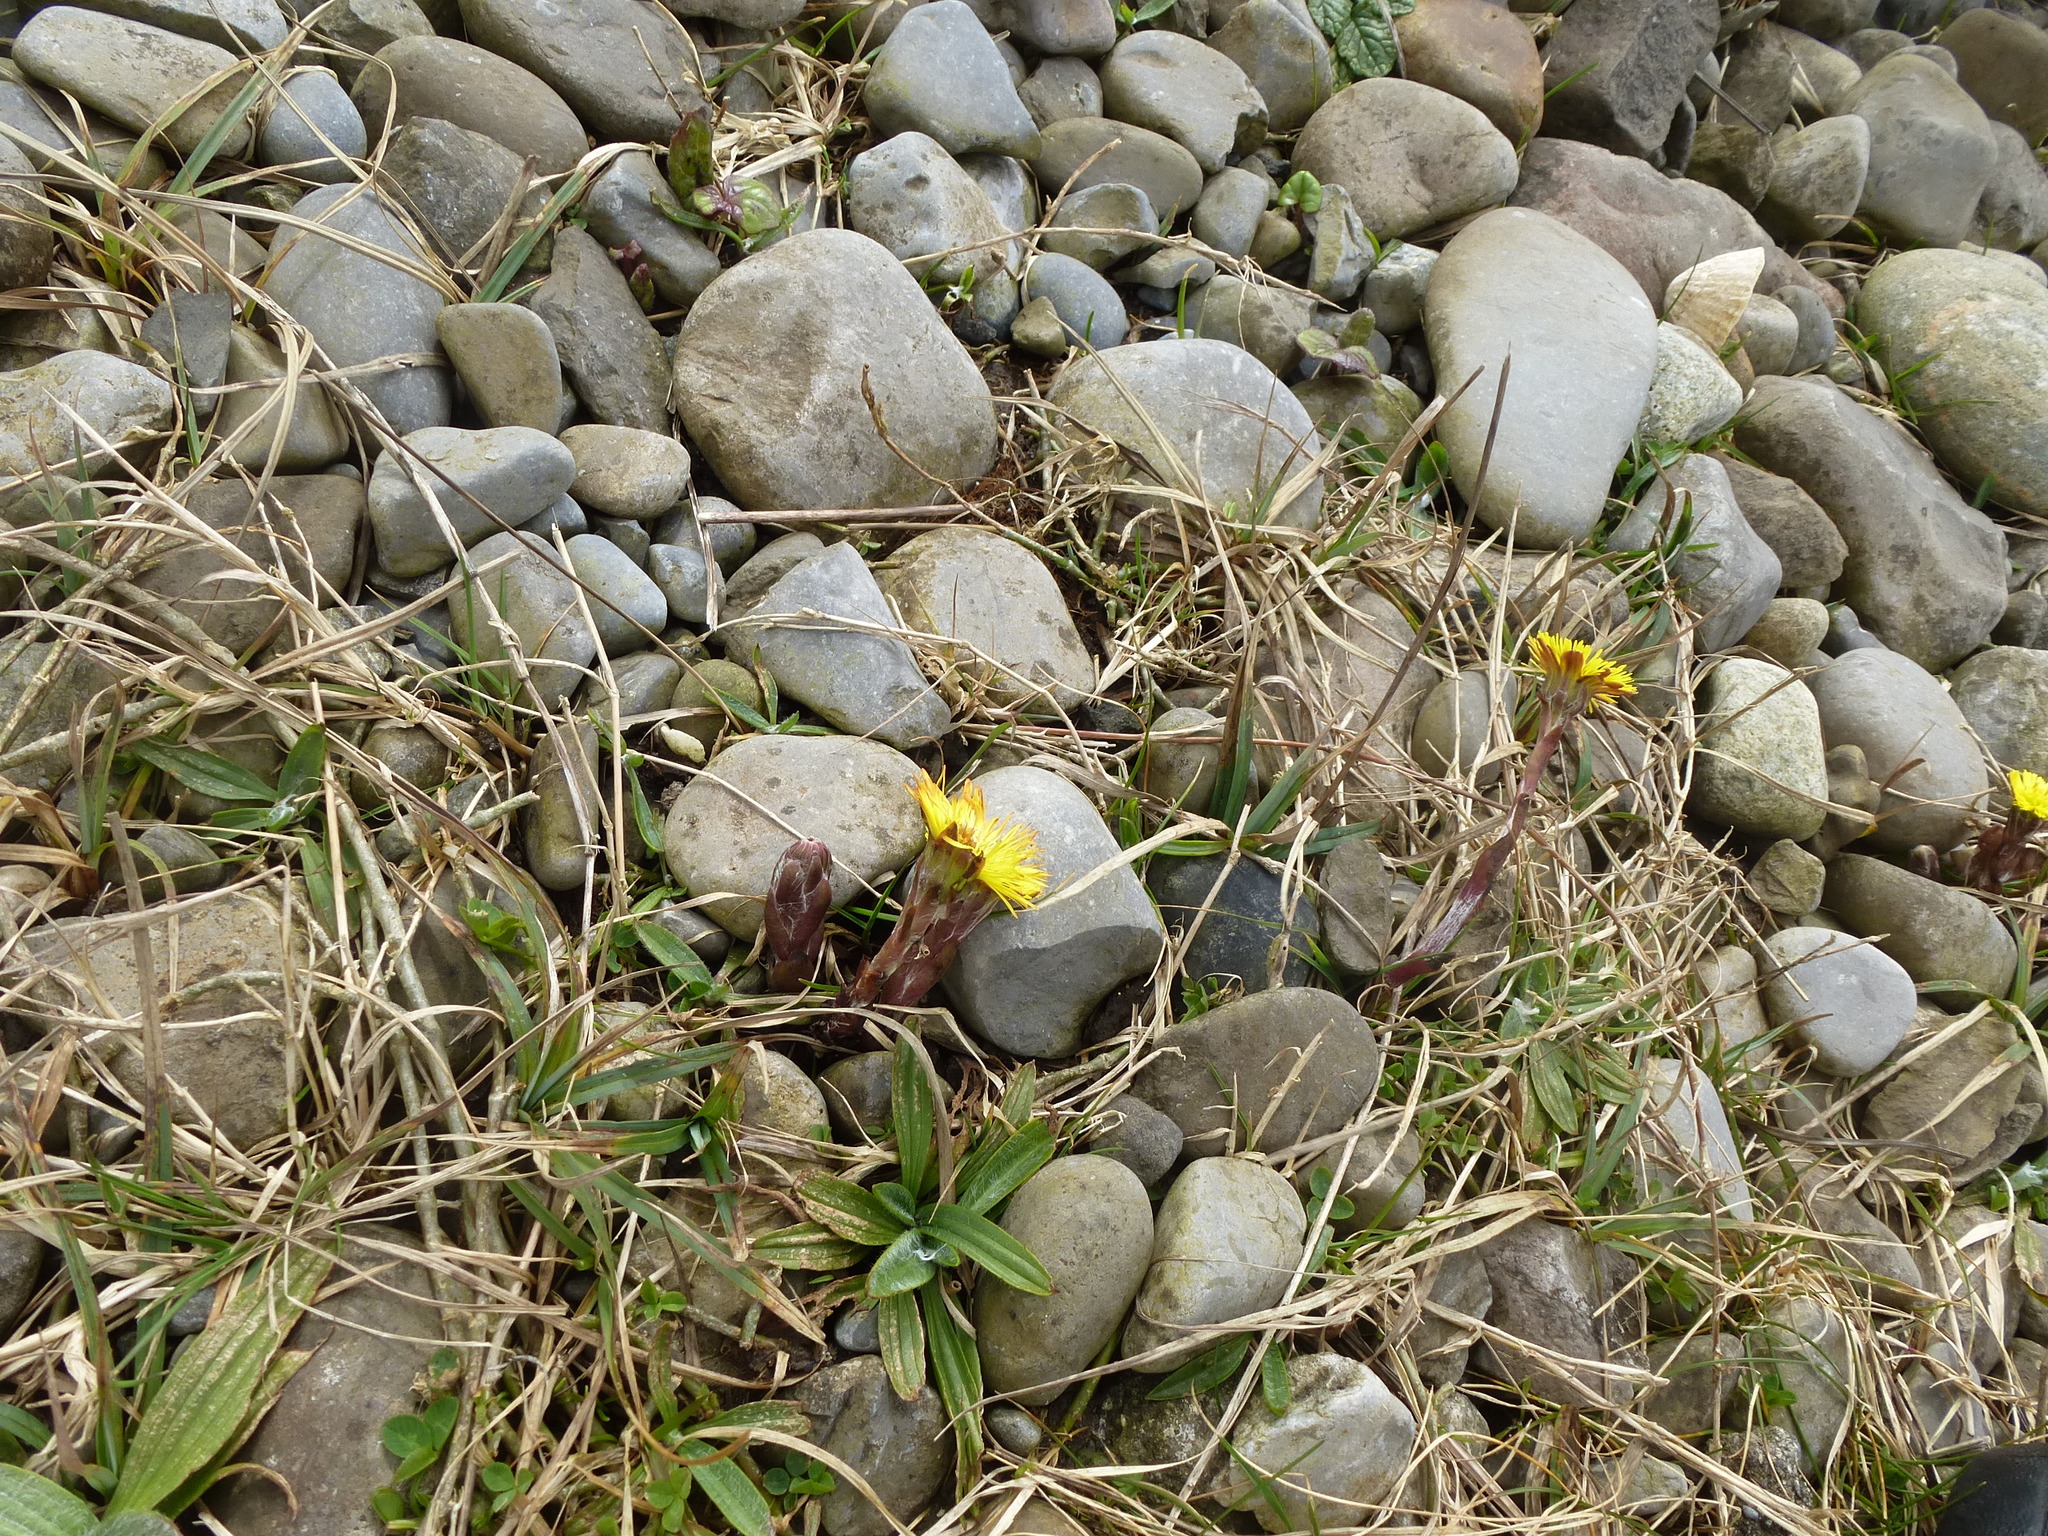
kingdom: Plantae
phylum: Tracheophyta
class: Magnoliopsida
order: Asterales
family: Asteraceae
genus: Tussilago
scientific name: Tussilago farfara
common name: Coltsfoot
